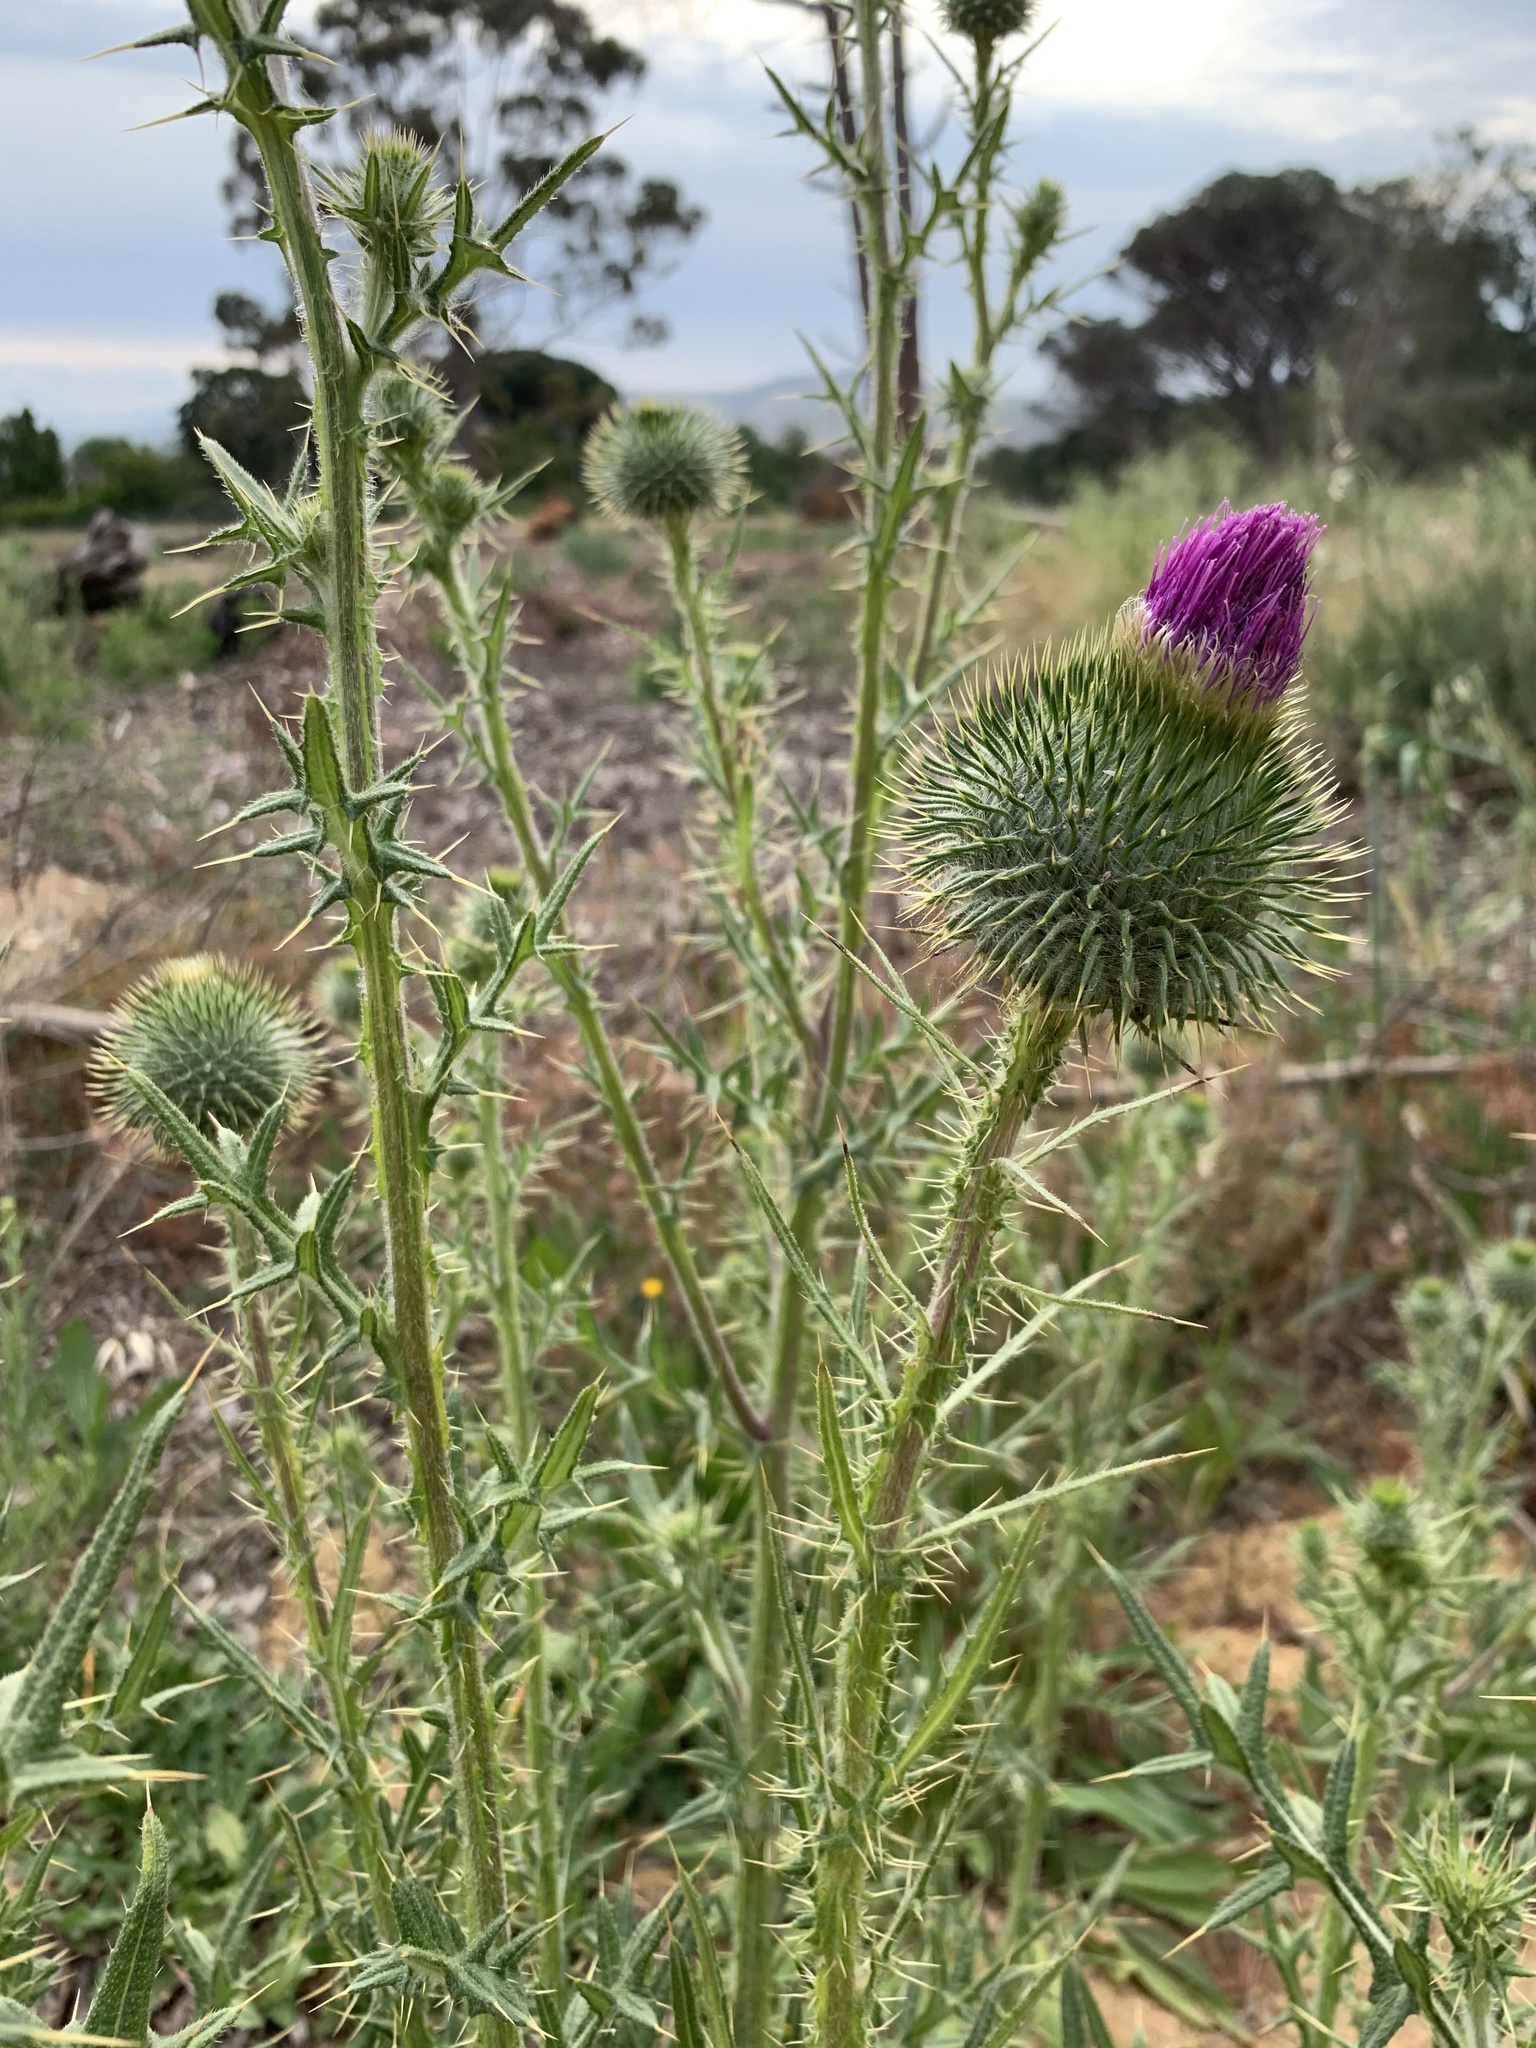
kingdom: Plantae
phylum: Tracheophyta
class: Magnoliopsida
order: Asterales
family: Asteraceae
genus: Cirsium
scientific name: Cirsium vulgare
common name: Bull thistle
